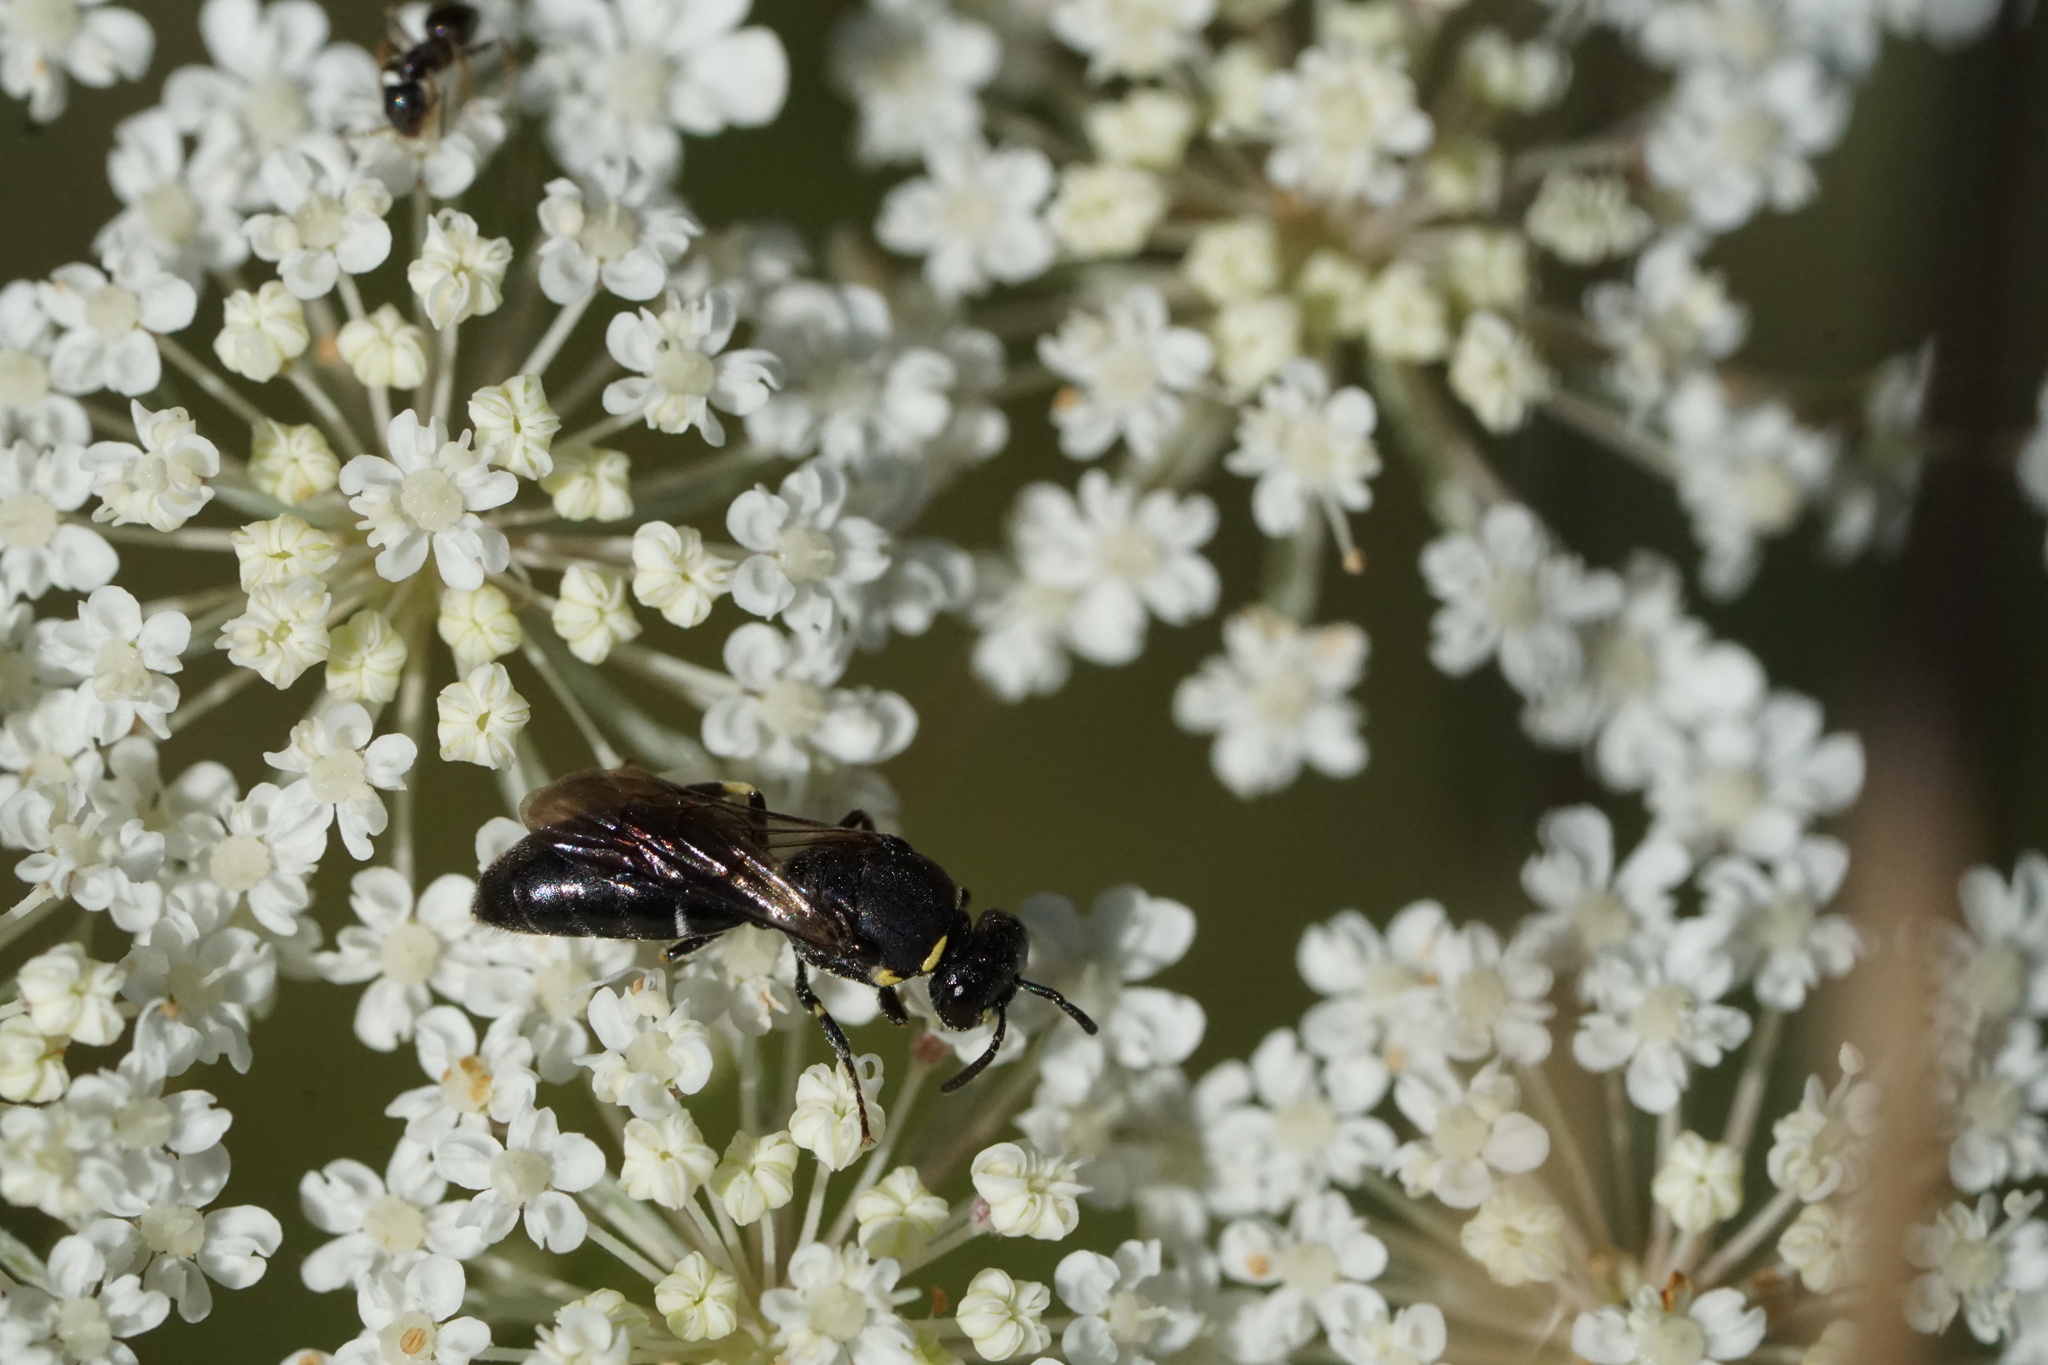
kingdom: Animalia
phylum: Arthropoda
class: Insecta
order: Hymenoptera
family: Colletidae
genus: Hylaeus
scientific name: Hylaeus modestus
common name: Yellow-faced bee
